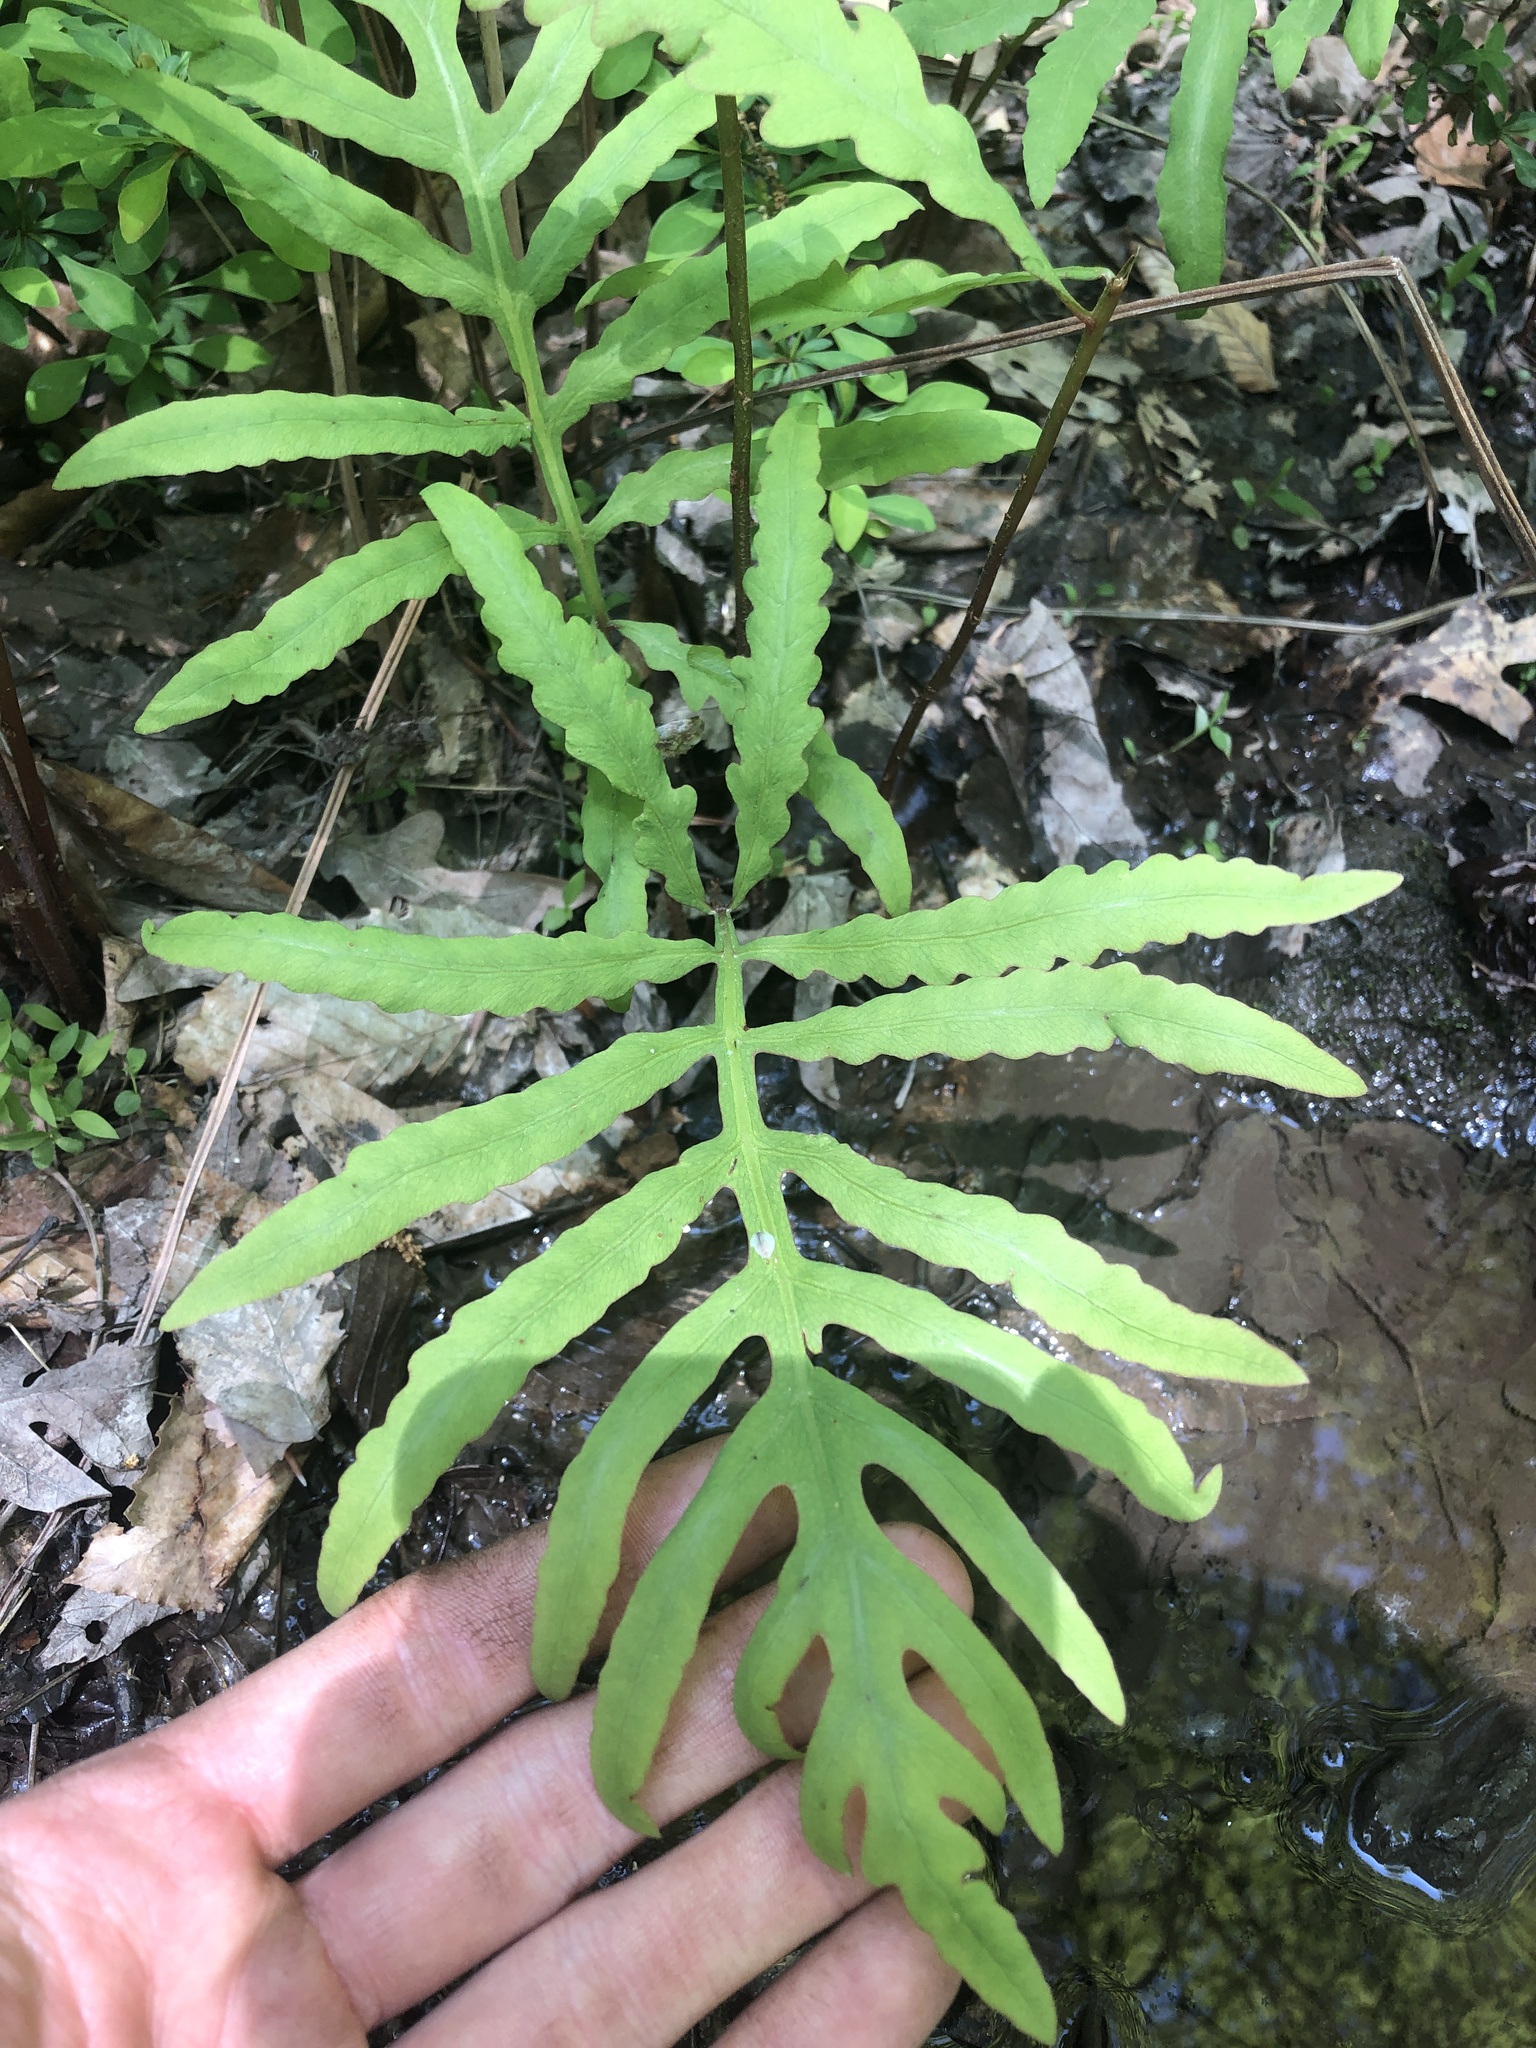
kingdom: Plantae
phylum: Tracheophyta
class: Polypodiopsida
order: Polypodiales
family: Onocleaceae
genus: Onoclea
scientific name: Onoclea sensibilis
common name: Sensitive fern
